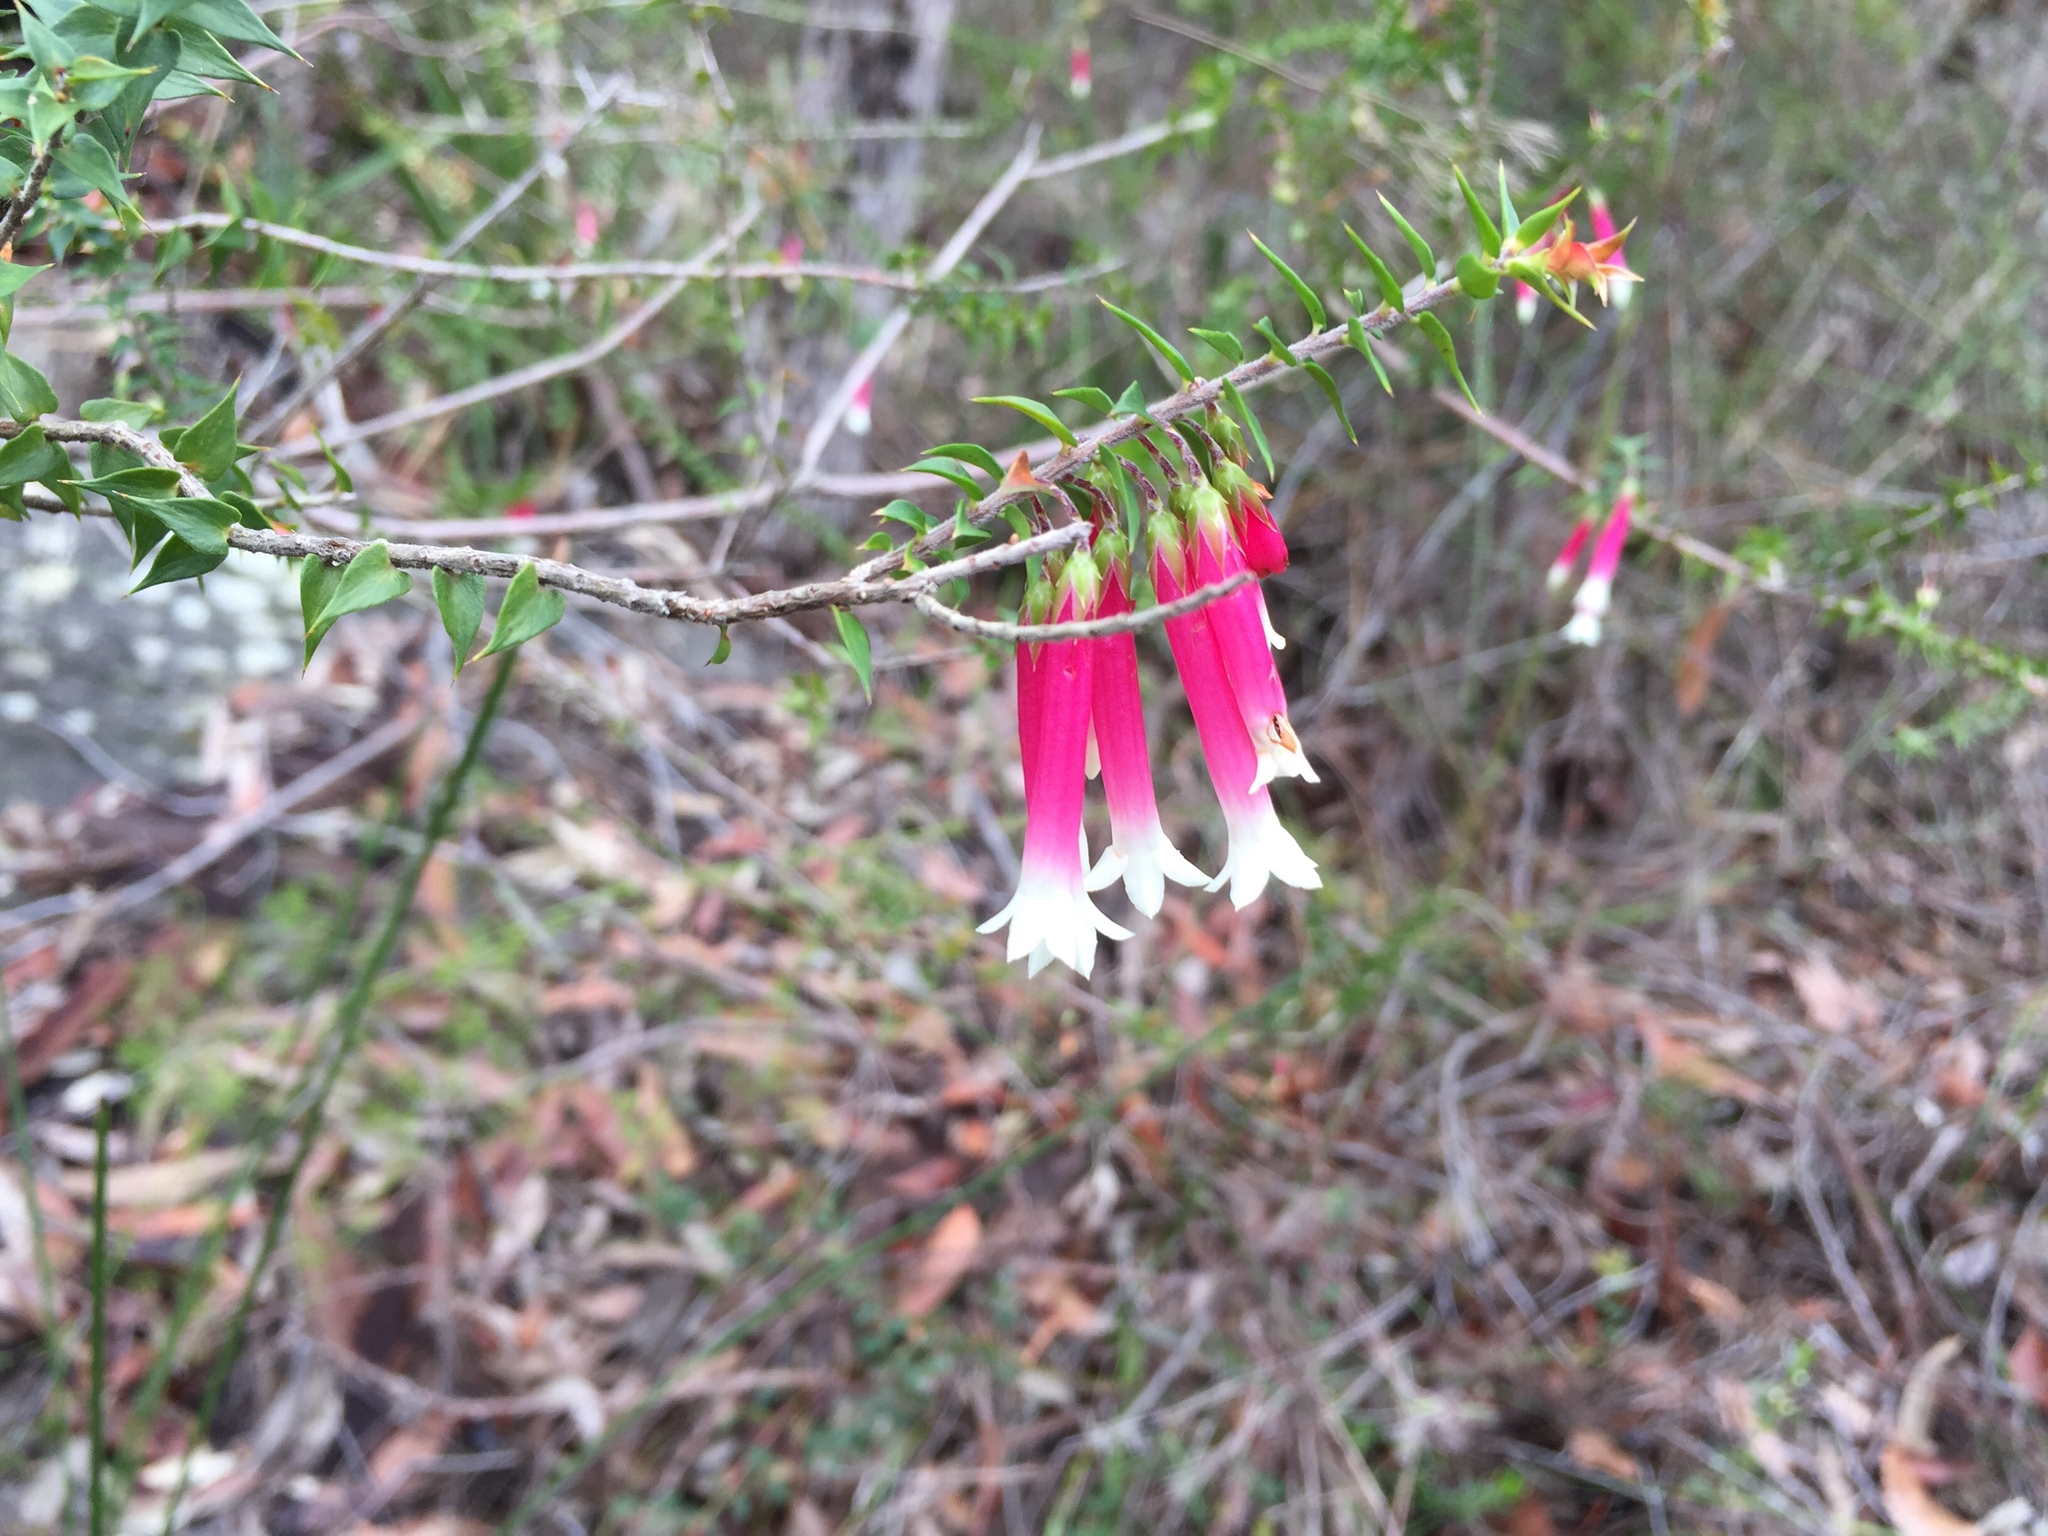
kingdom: Plantae
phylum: Tracheophyta
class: Magnoliopsida
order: Ericales
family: Ericaceae
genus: Epacris
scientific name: Epacris longiflora
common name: Fuchsia-heath
